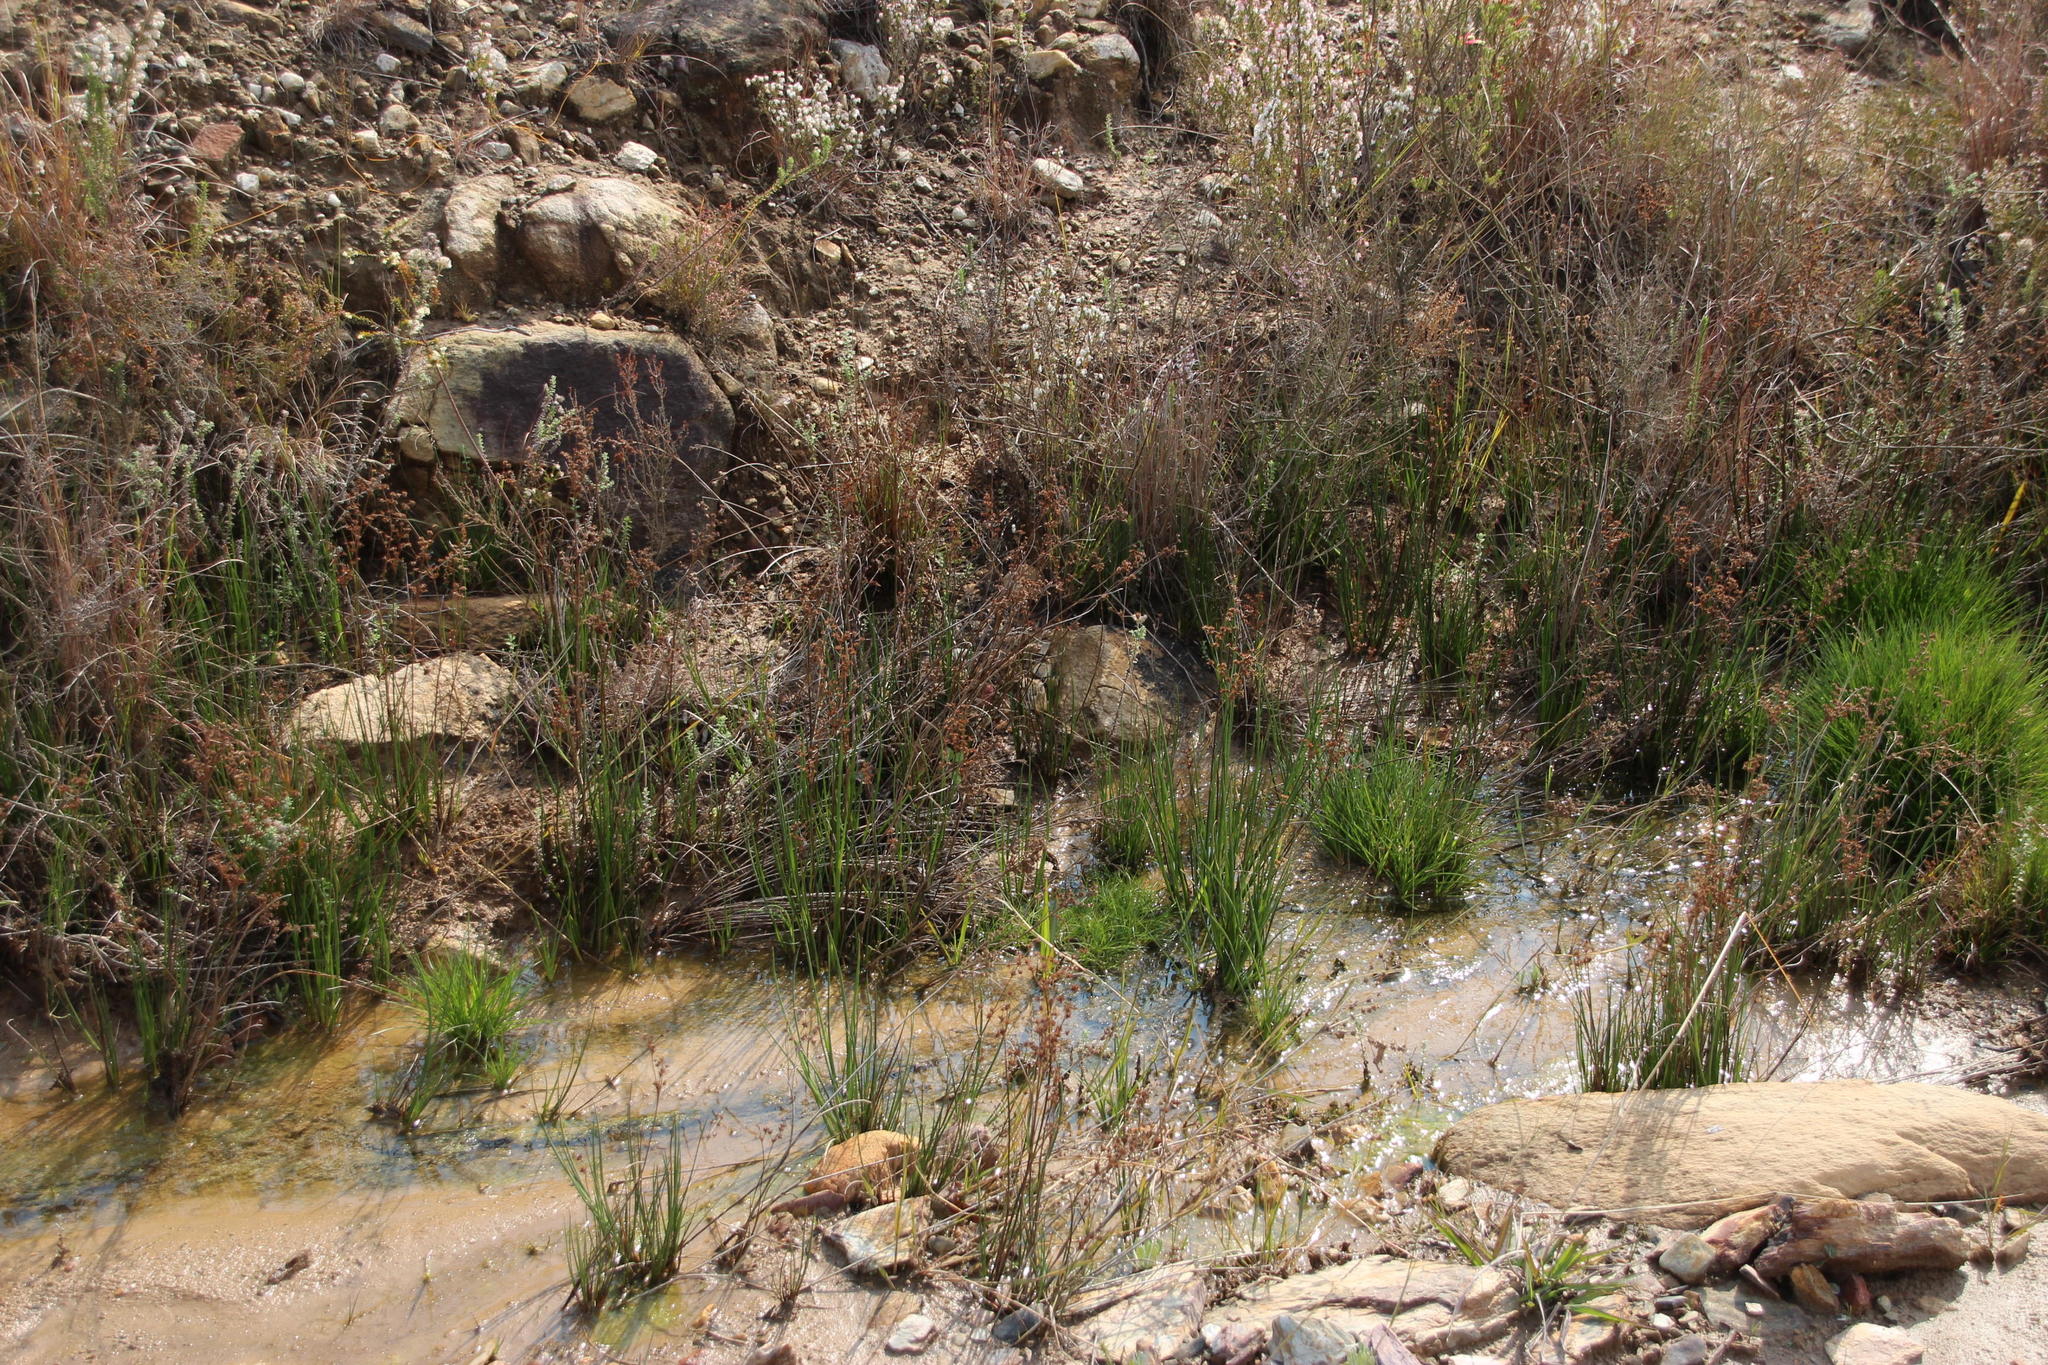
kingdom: Plantae
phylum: Tracheophyta
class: Liliopsida
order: Poales
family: Juncaceae
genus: Juncus
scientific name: Juncus exsertus
